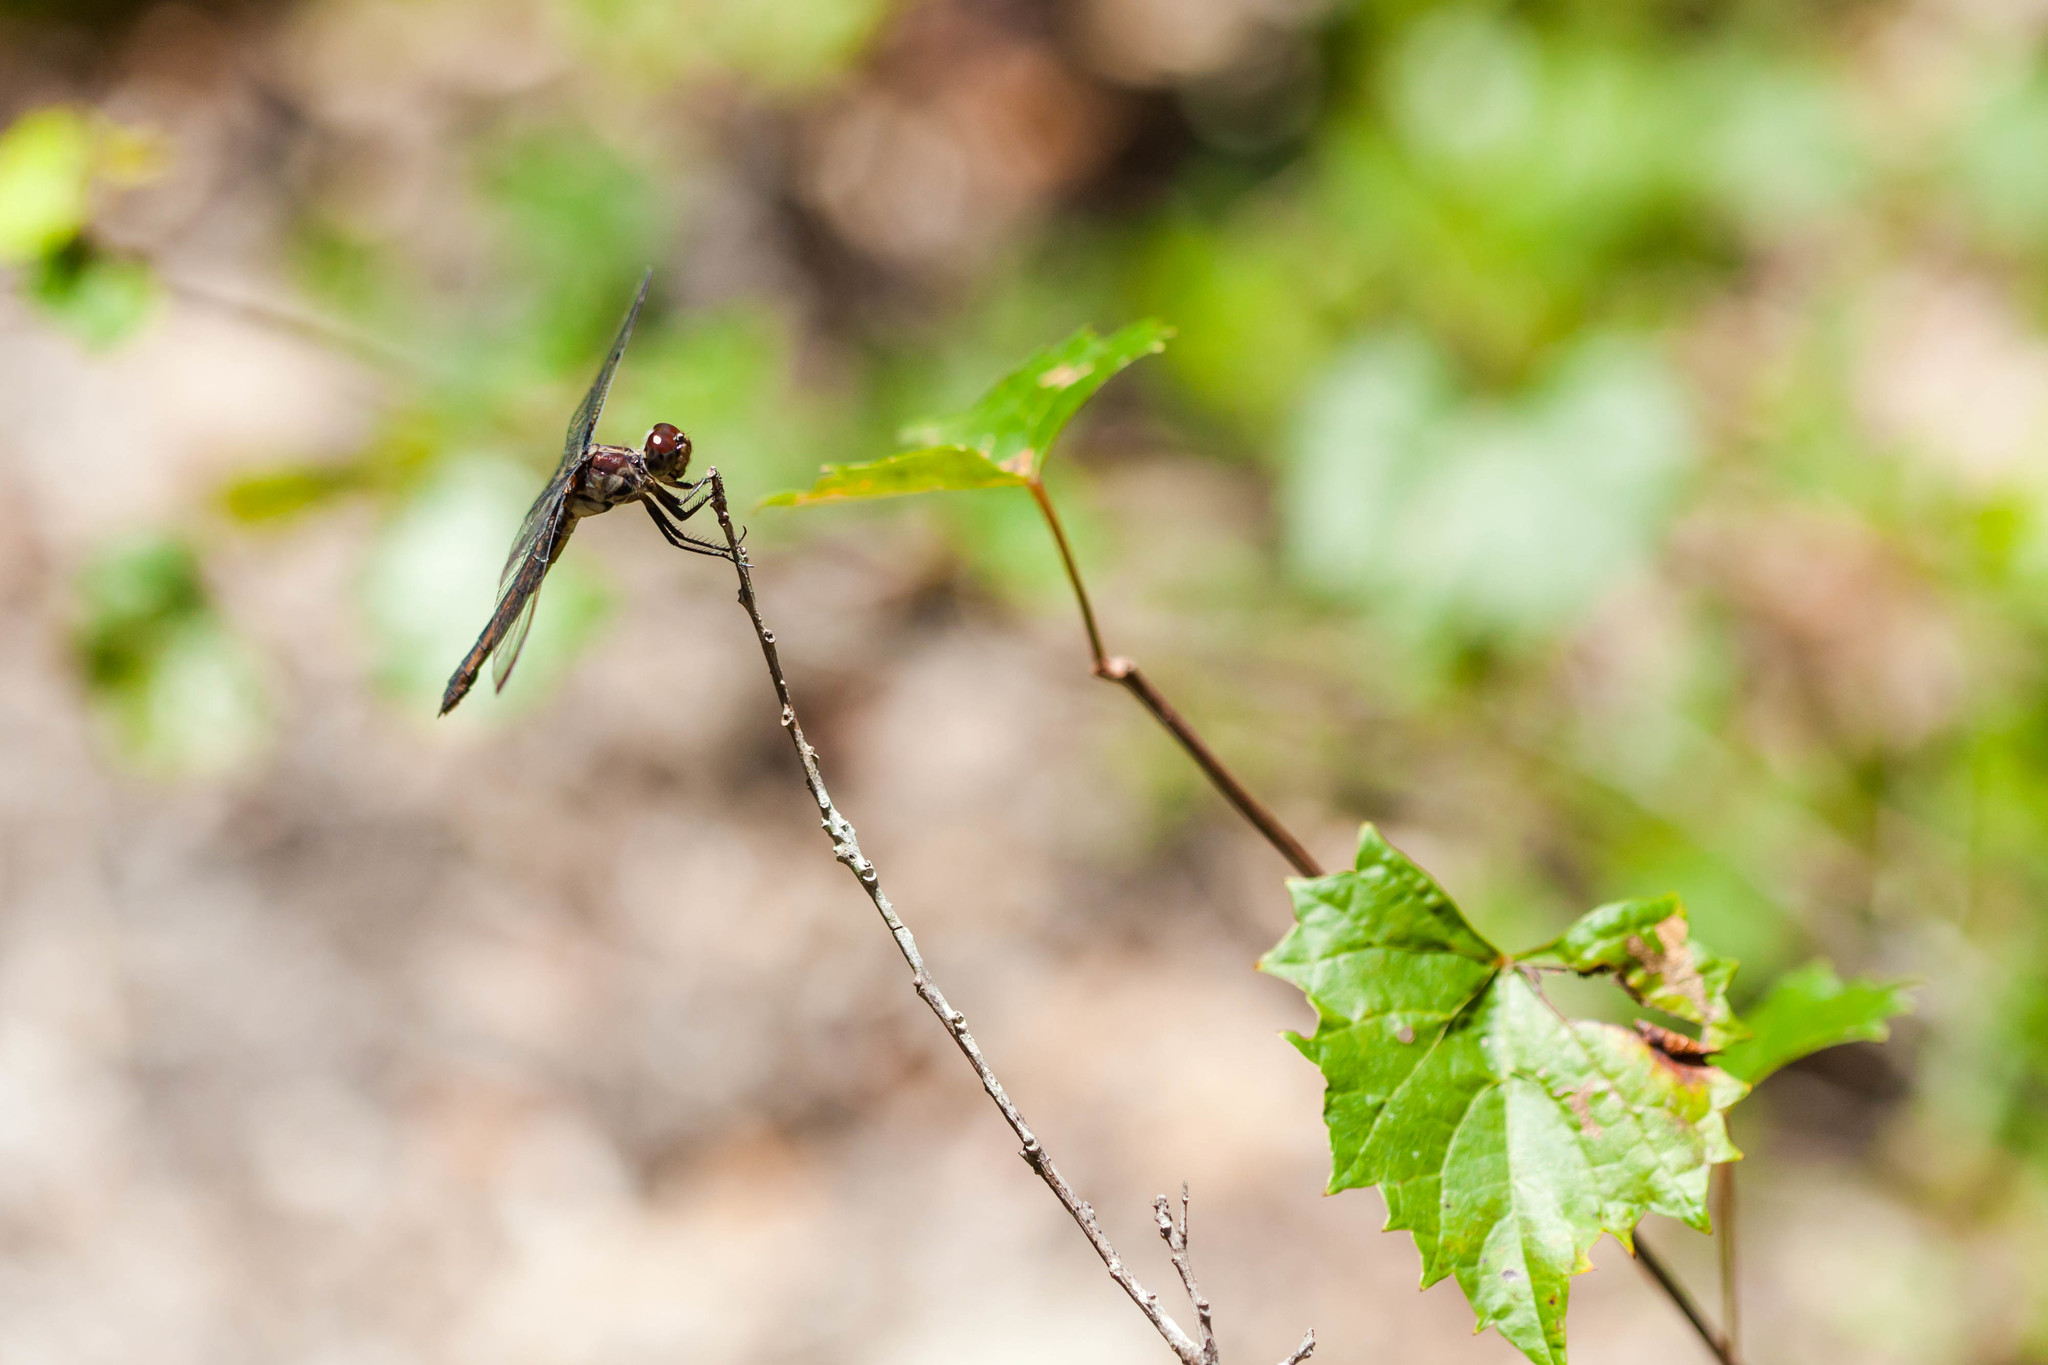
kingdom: Animalia
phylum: Arthropoda
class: Insecta
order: Odonata
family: Libellulidae
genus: Libellula
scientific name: Libellula incesta
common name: Slaty skimmer
